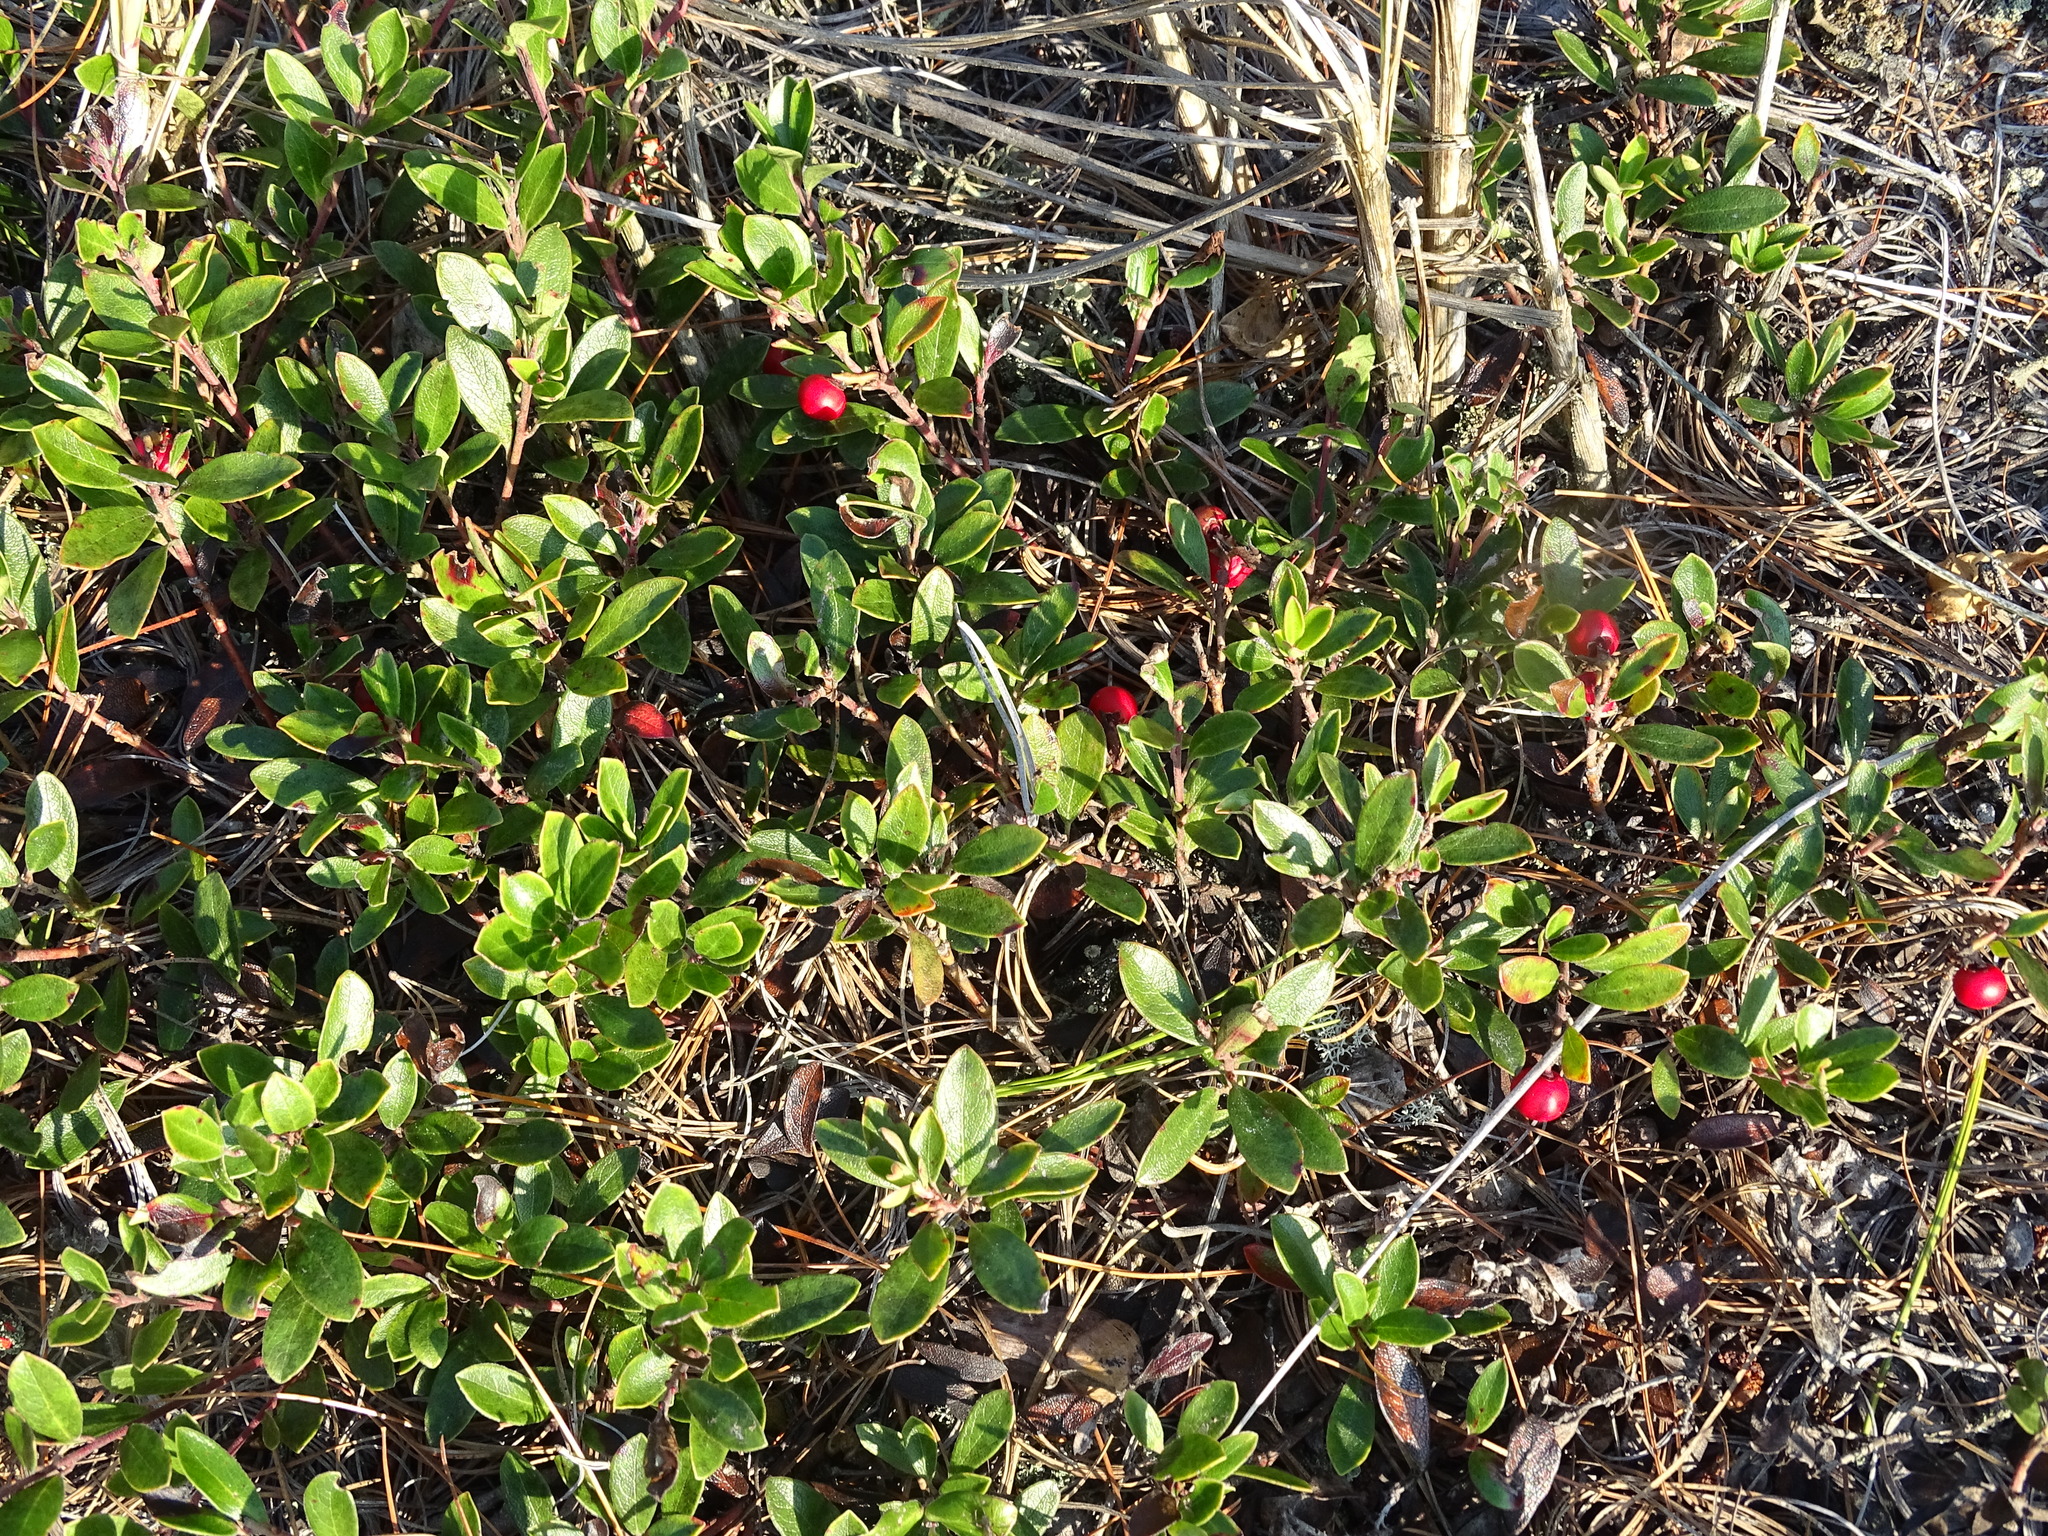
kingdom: Plantae
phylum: Tracheophyta
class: Magnoliopsida
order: Ericales
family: Ericaceae
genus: Arctostaphylos
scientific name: Arctostaphylos uva-ursi
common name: Bearberry
